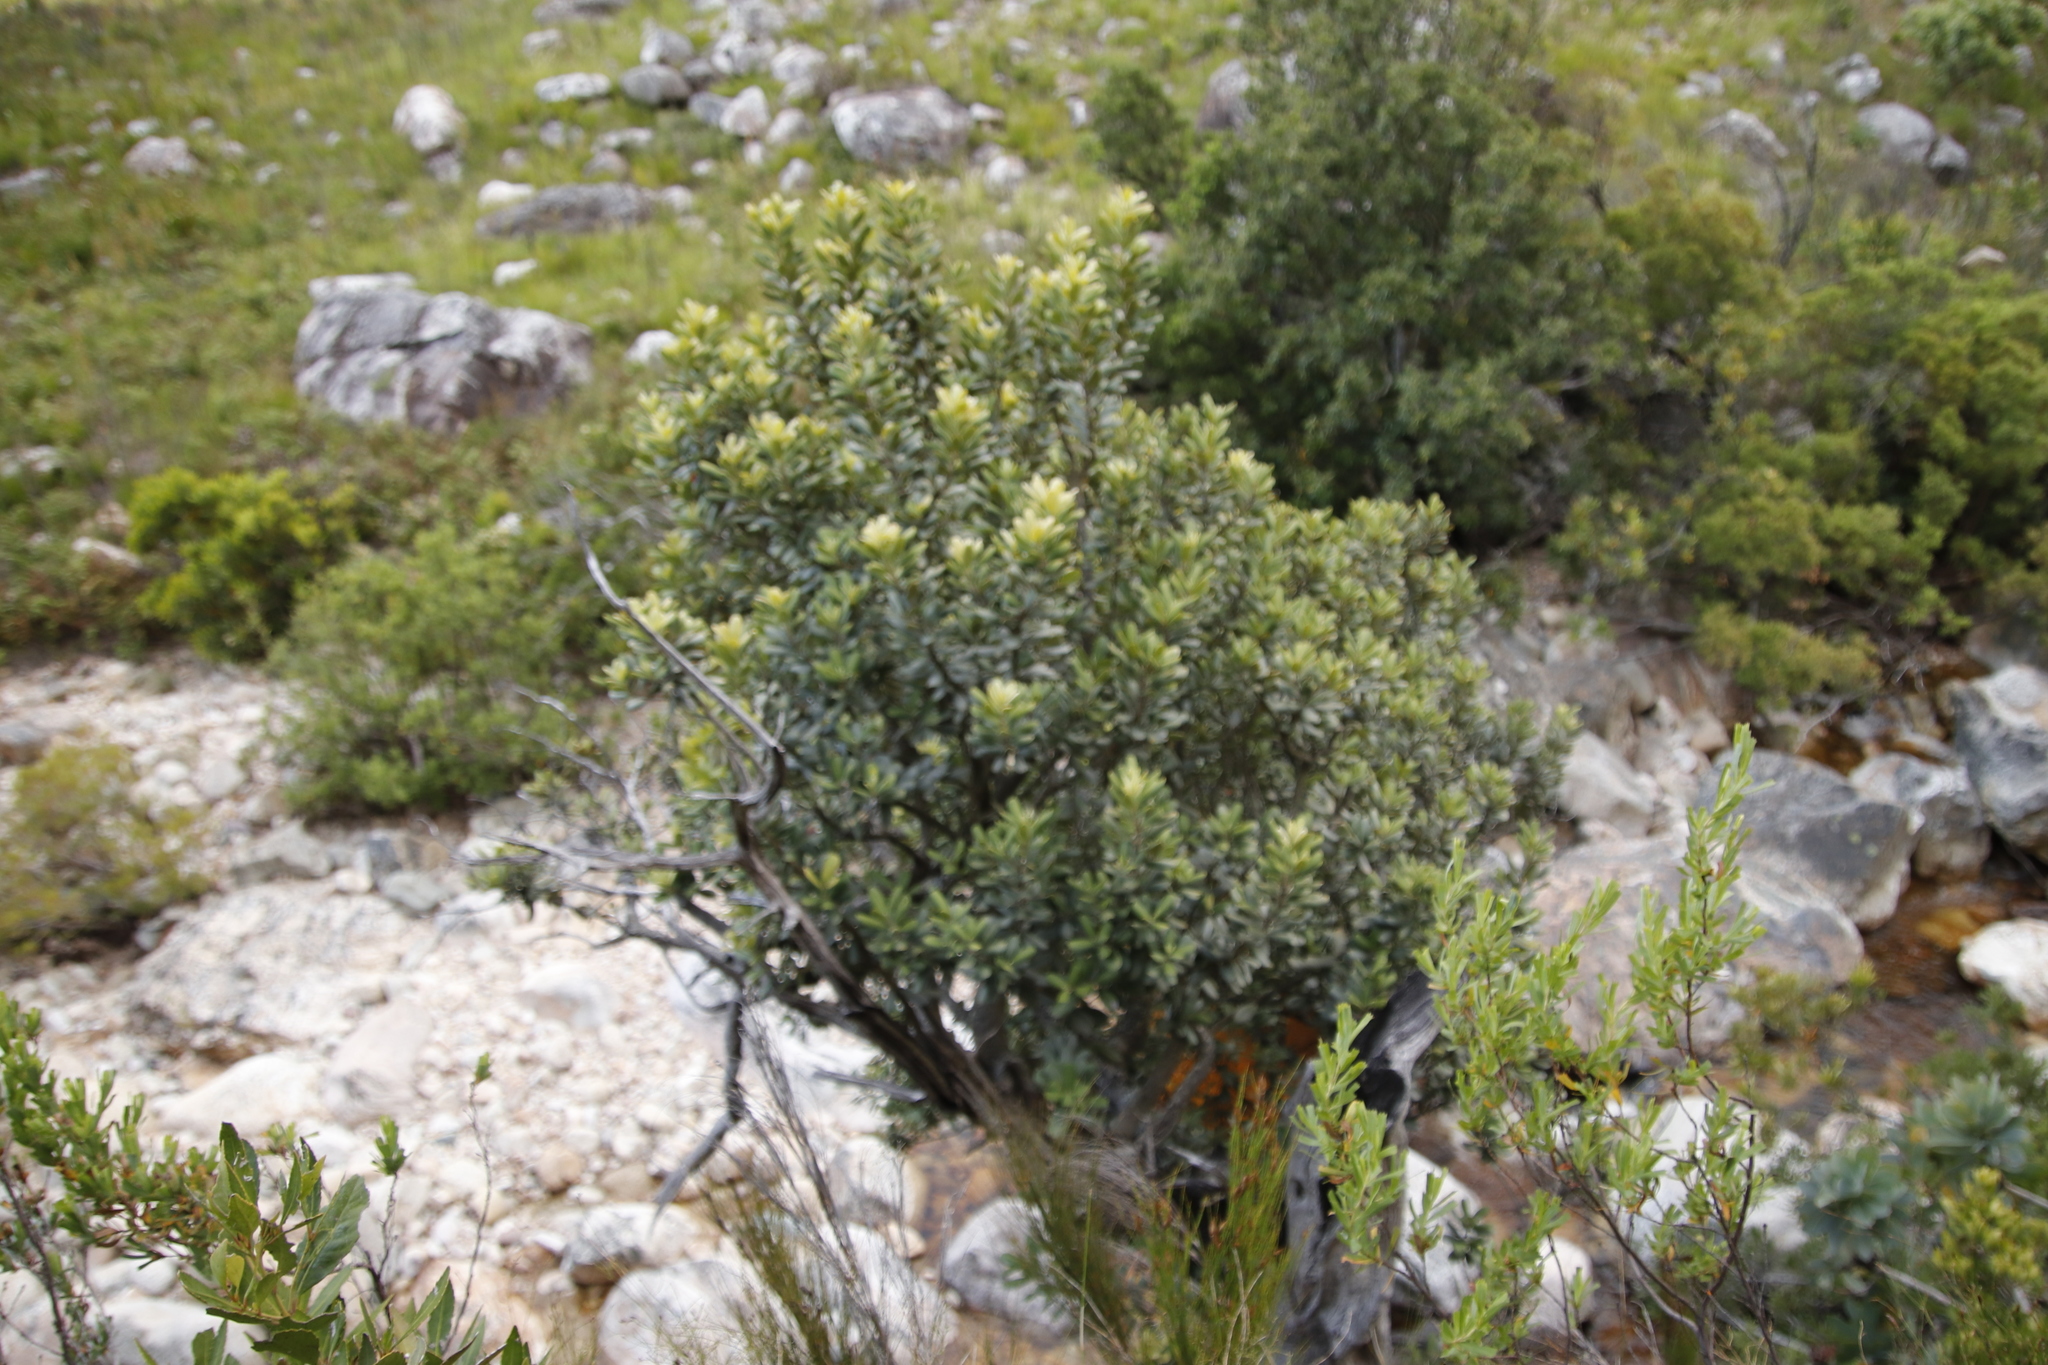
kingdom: Plantae
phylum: Tracheophyta
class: Magnoliopsida
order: Sapindales
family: Anacardiaceae
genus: Heeria
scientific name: Heeria argentea
